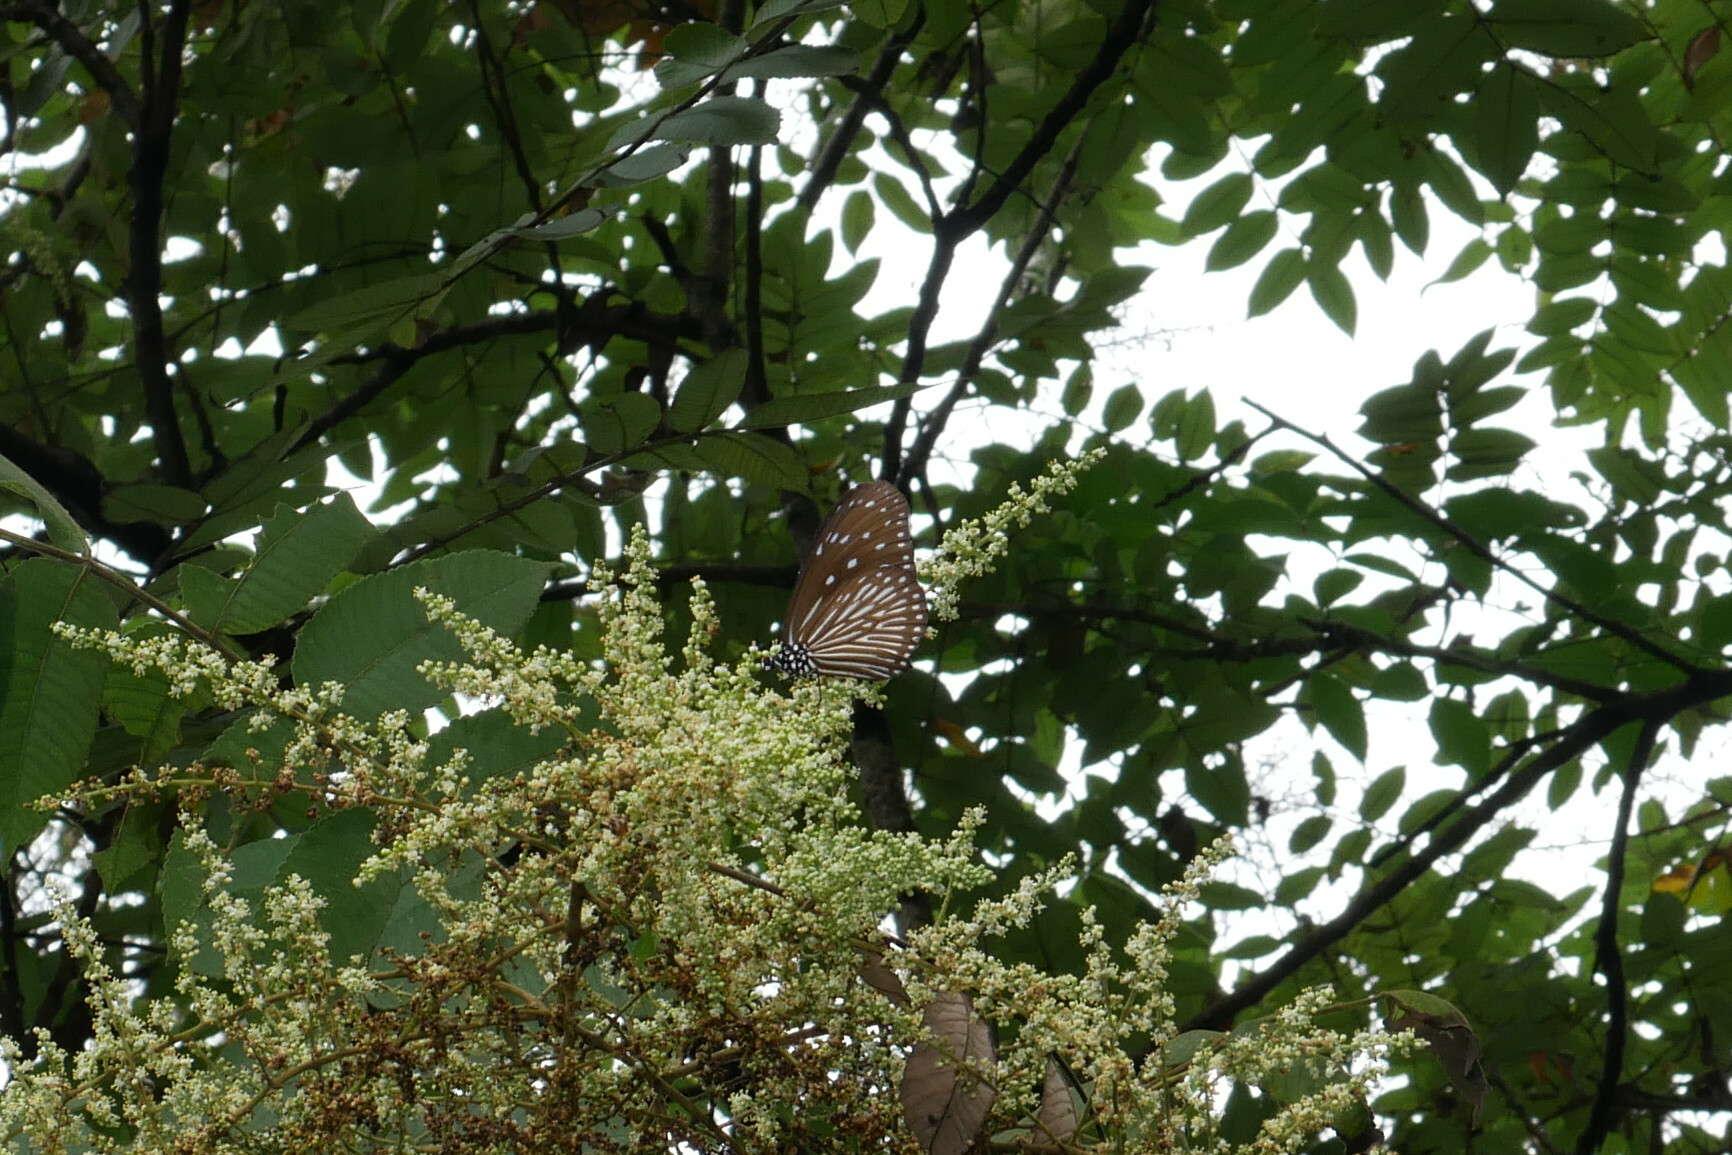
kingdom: Animalia
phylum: Arthropoda
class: Insecta
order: Lepidoptera
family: Nymphalidae
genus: Euploea
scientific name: Euploea mulciber
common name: Striped blue crow butterfly
